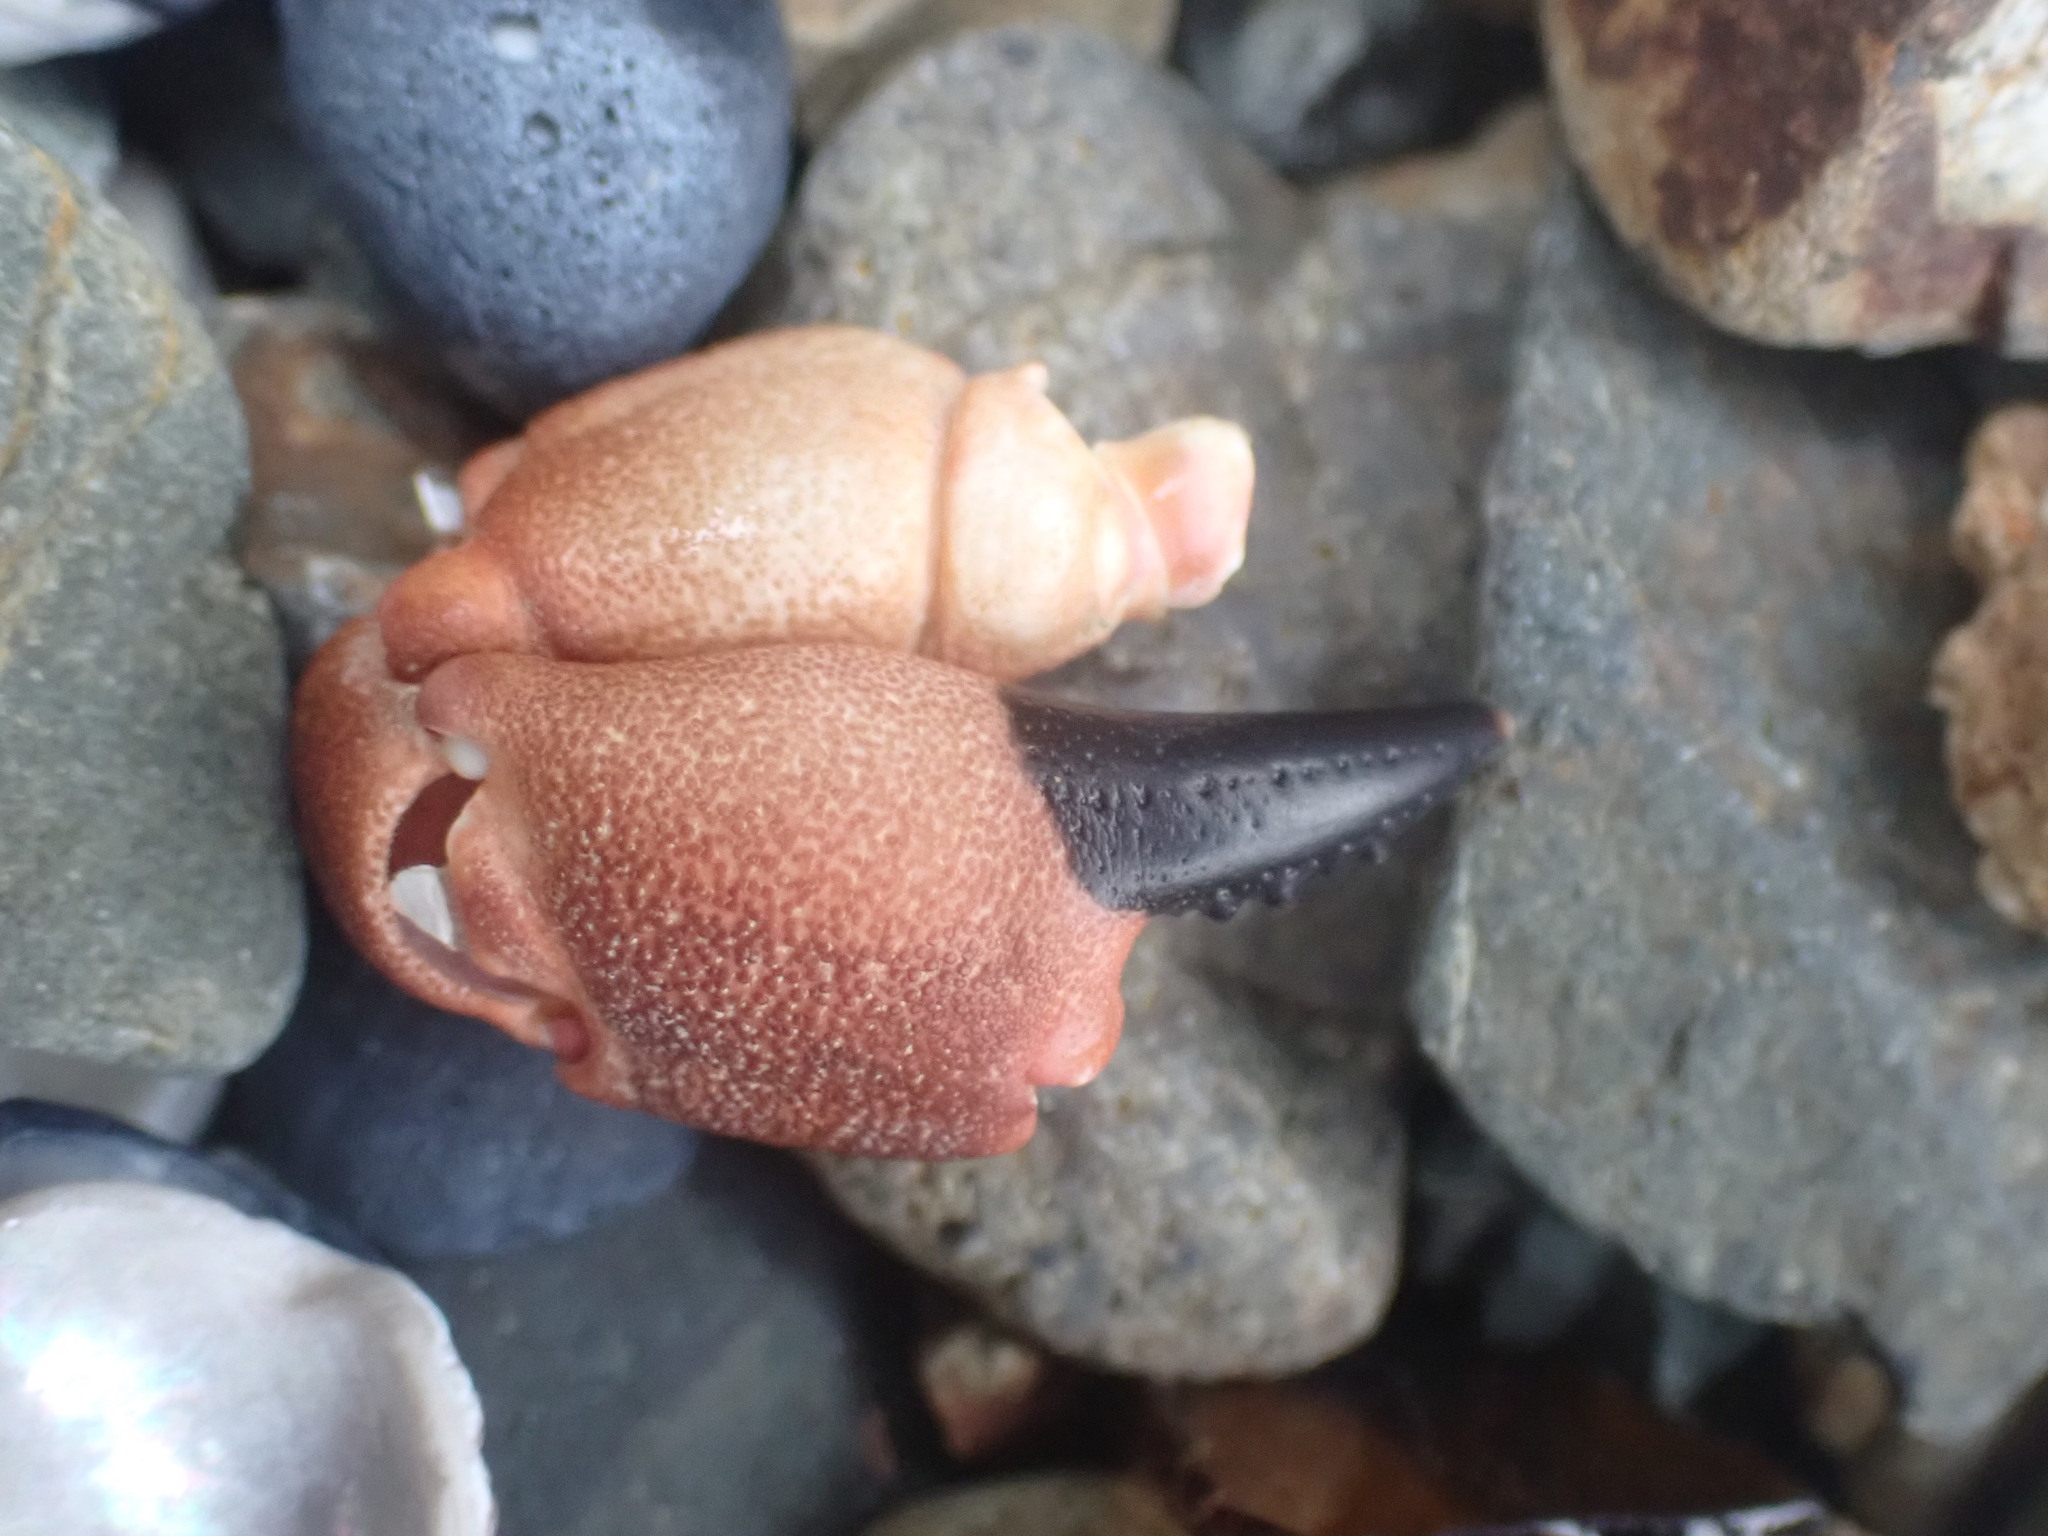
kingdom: Animalia
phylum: Arthropoda
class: Malacostraca
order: Decapoda
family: Oziidae
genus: Ozius
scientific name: Ozius deplanatus
